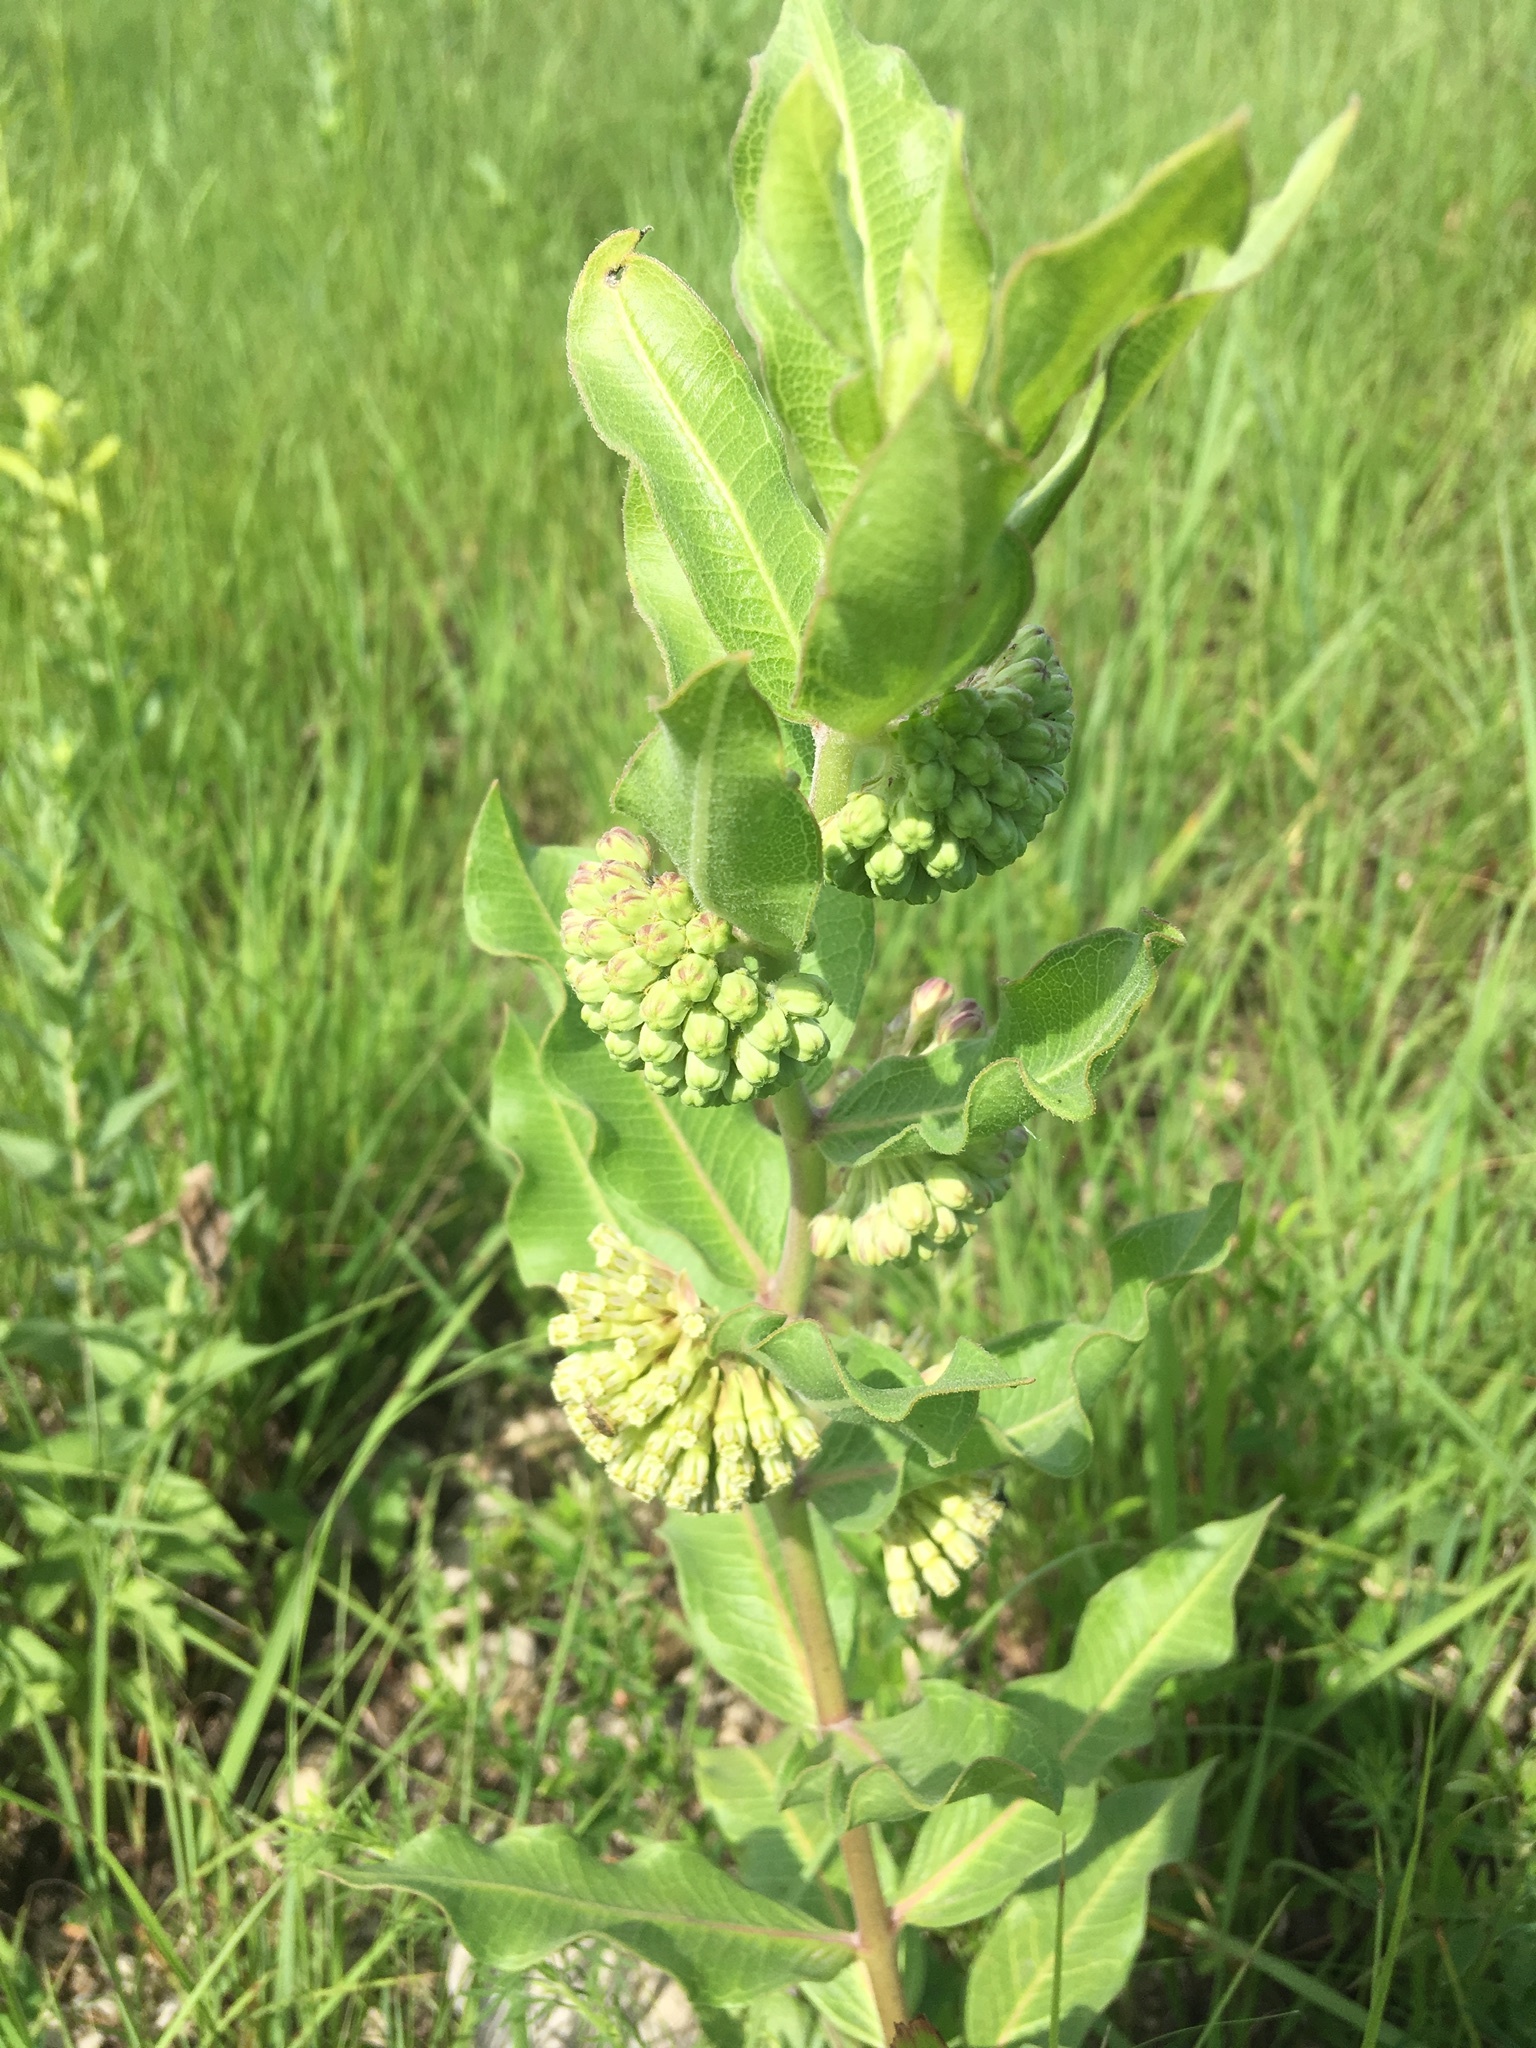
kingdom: Plantae
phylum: Tracheophyta
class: Magnoliopsida
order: Gentianales
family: Apocynaceae
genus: Asclepias
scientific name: Asclepias viridiflora
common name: Green comet milkweed
